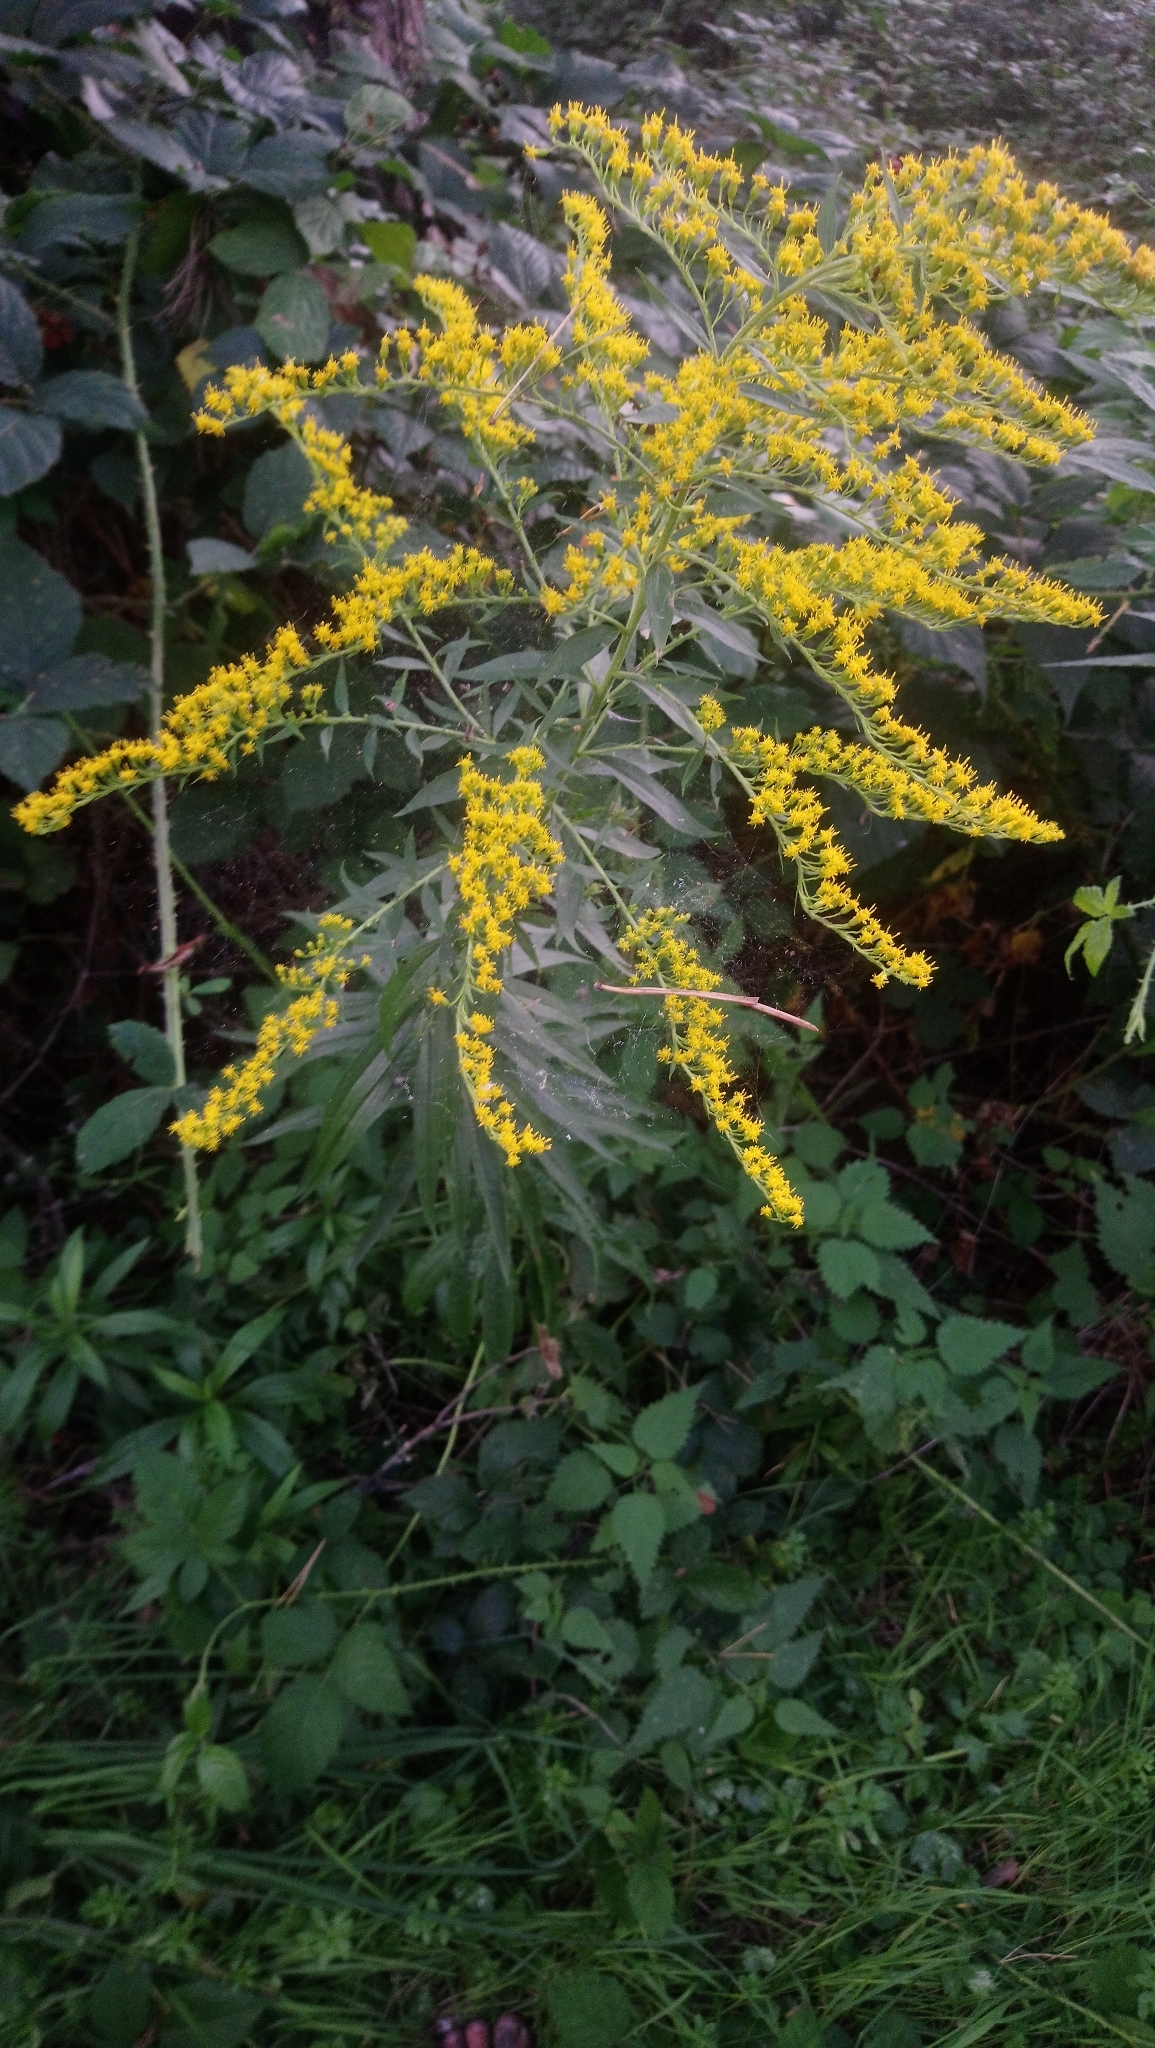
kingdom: Plantae
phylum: Tracheophyta
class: Magnoliopsida
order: Asterales
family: Asteraceae
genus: Solidago
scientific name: Solidago canadensis
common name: Canada goldenrod
